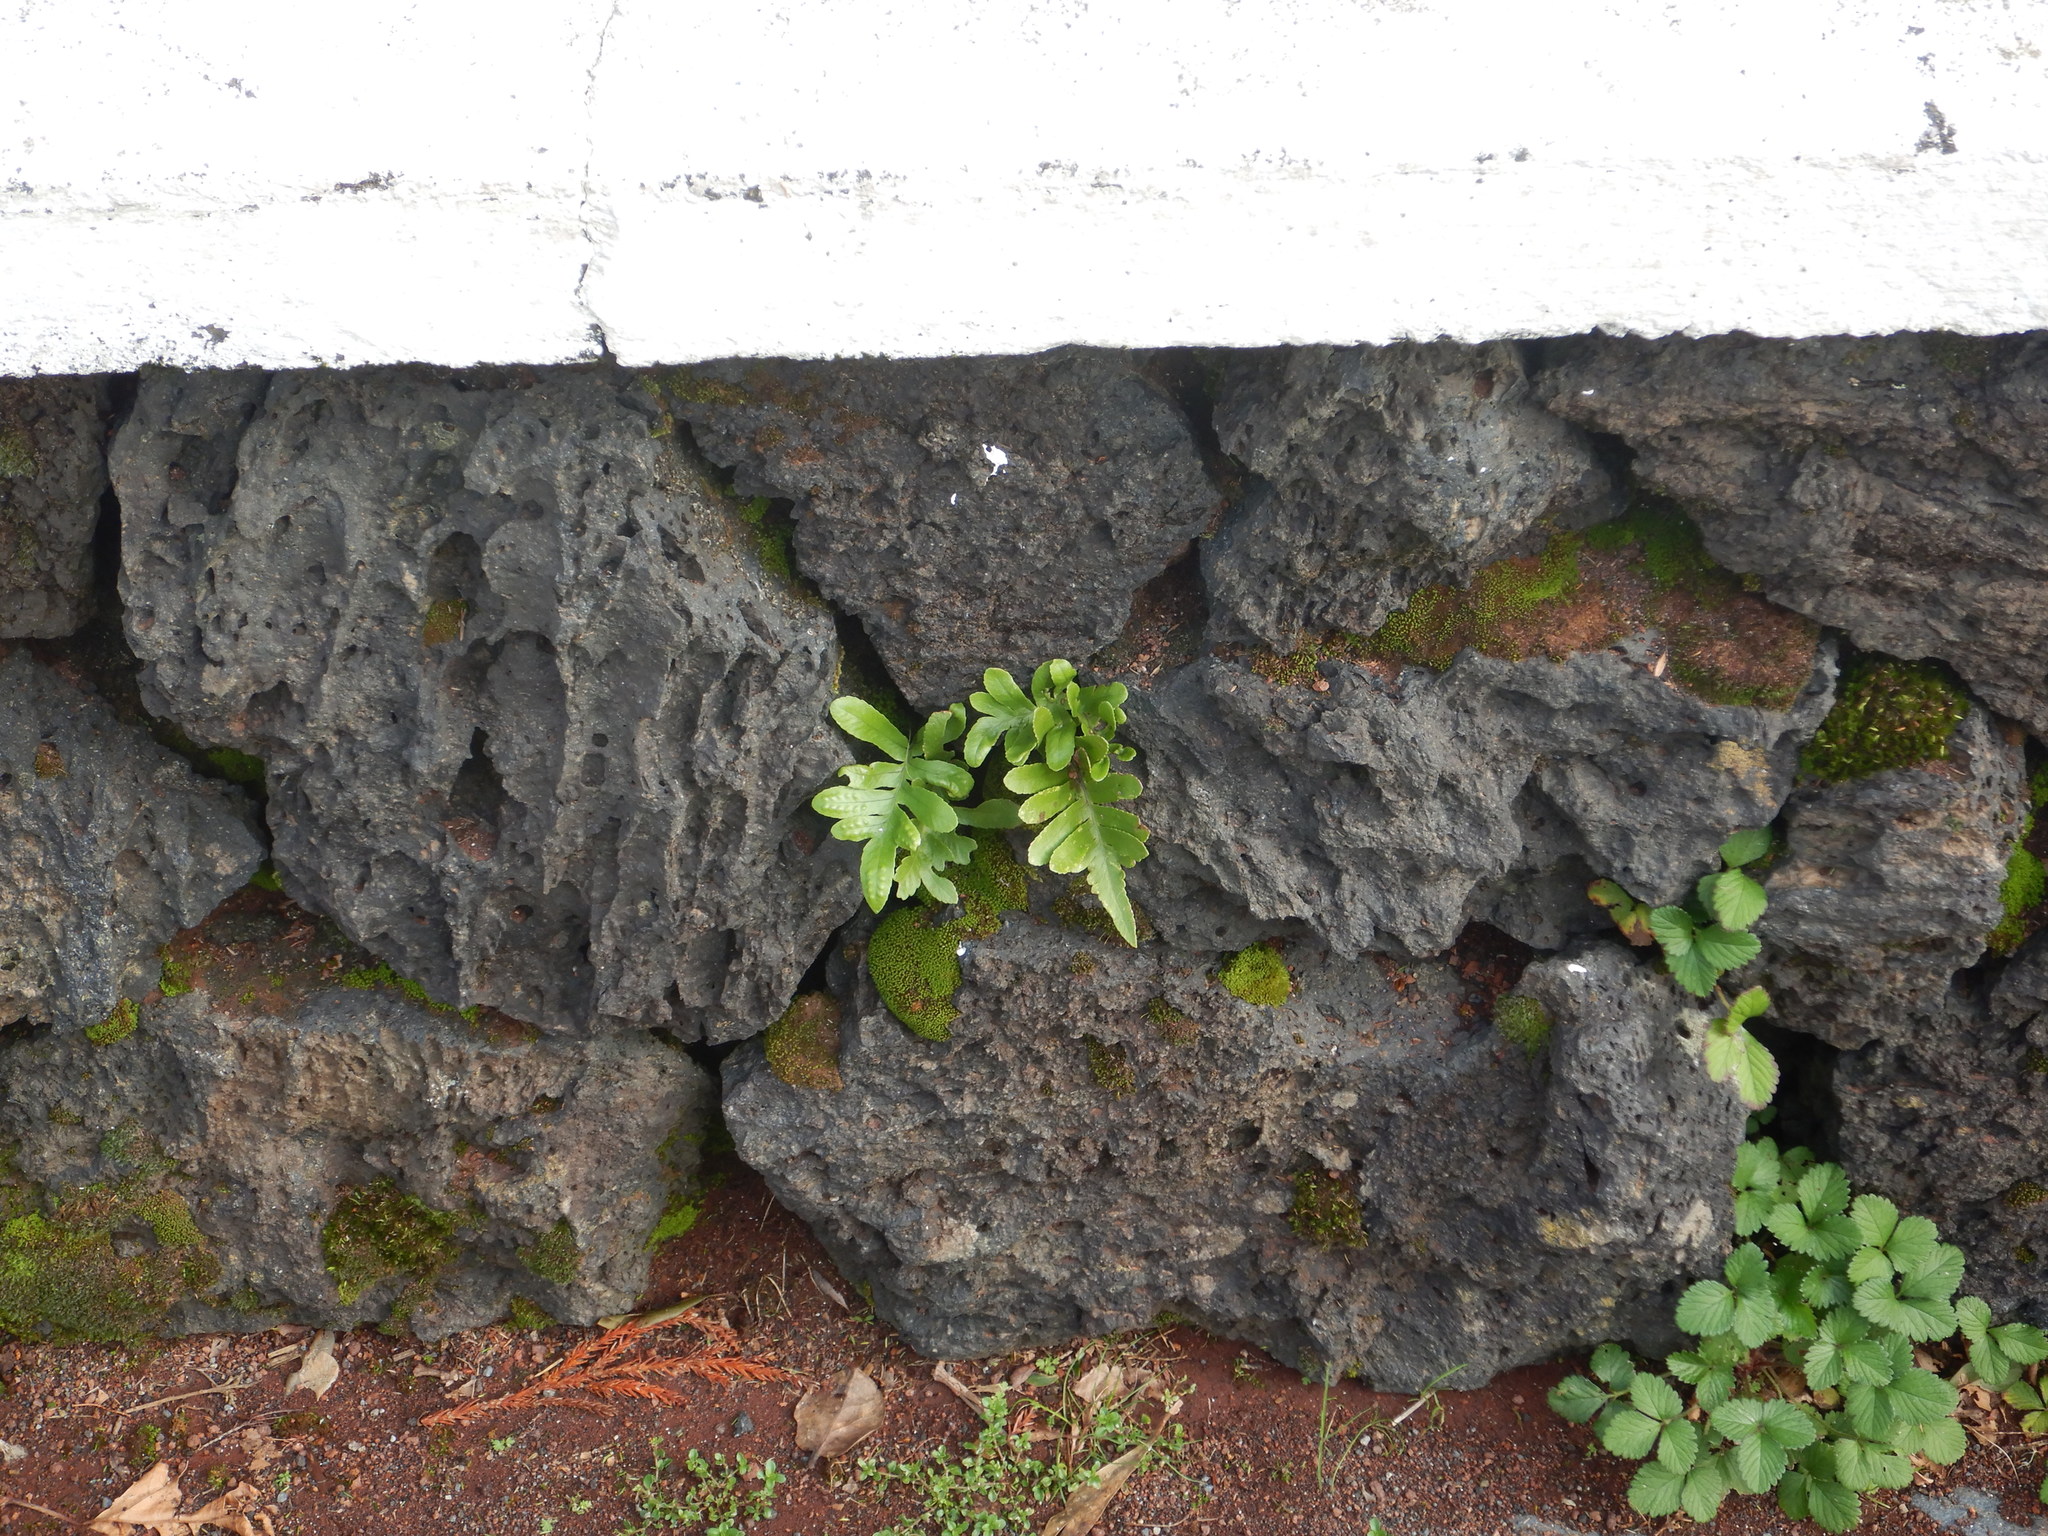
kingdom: Plantae
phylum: Tracheophyta
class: Polypodiopsida
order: Polypodiales
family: Polypodiaceae
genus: Polypodium
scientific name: Polypodium macaronesicum
